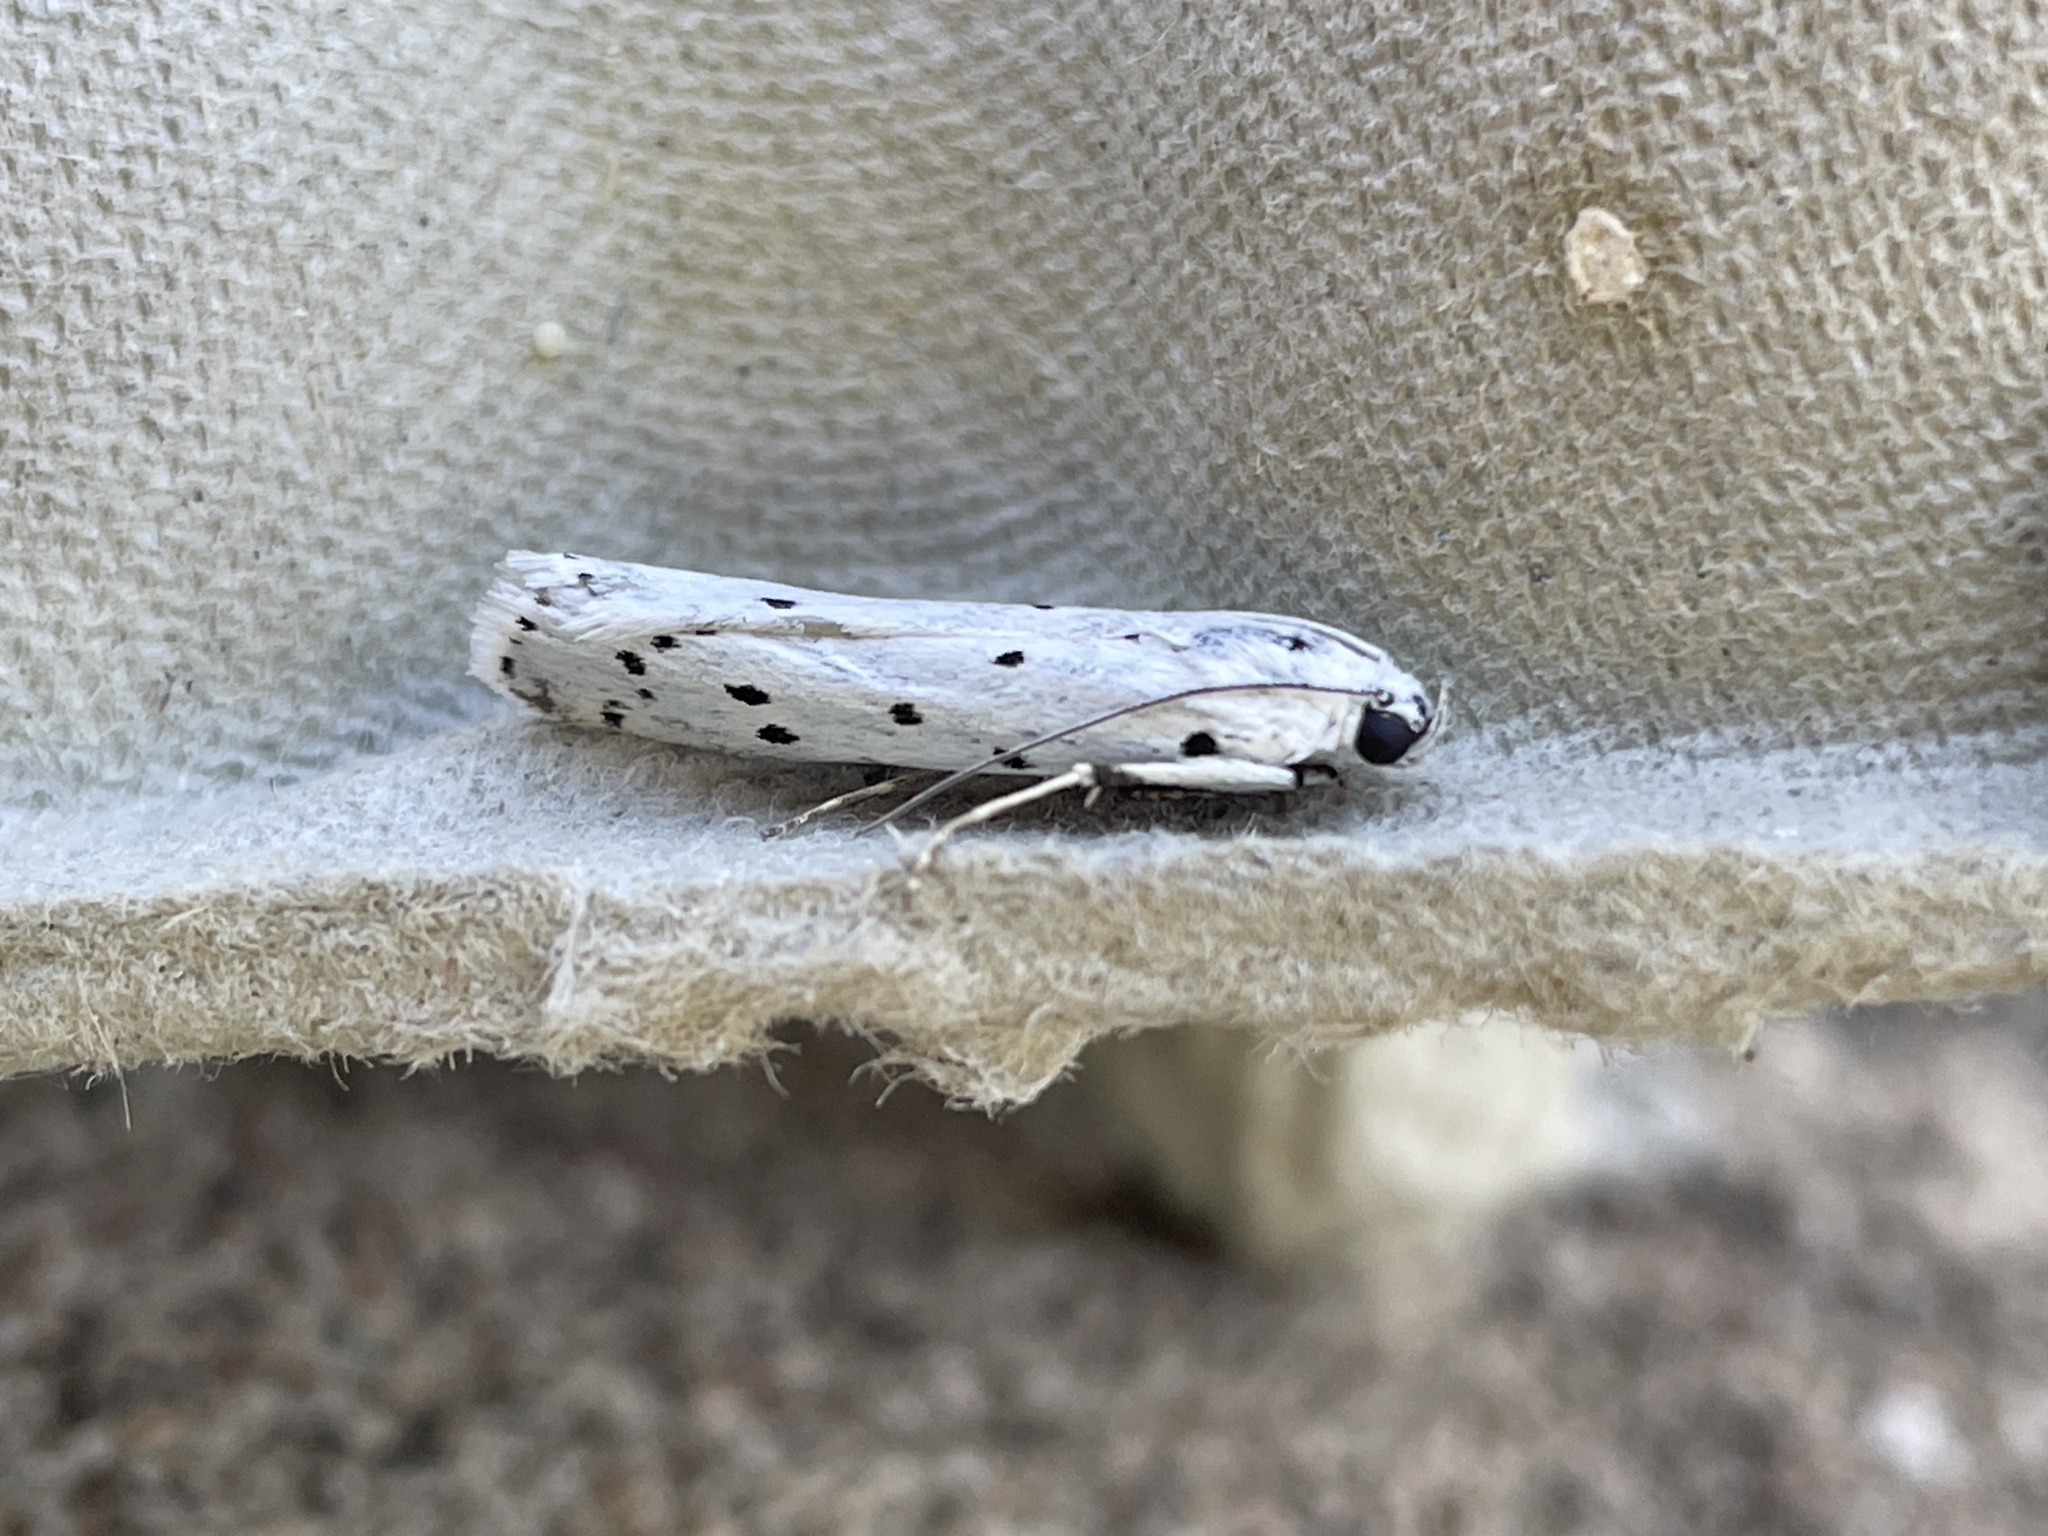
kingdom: Animalia
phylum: Arthropoda
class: Insecta
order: Lepidoptera
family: Pyralidae
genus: Myelois
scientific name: Myelois circumvoluta
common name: Thistle ermine
